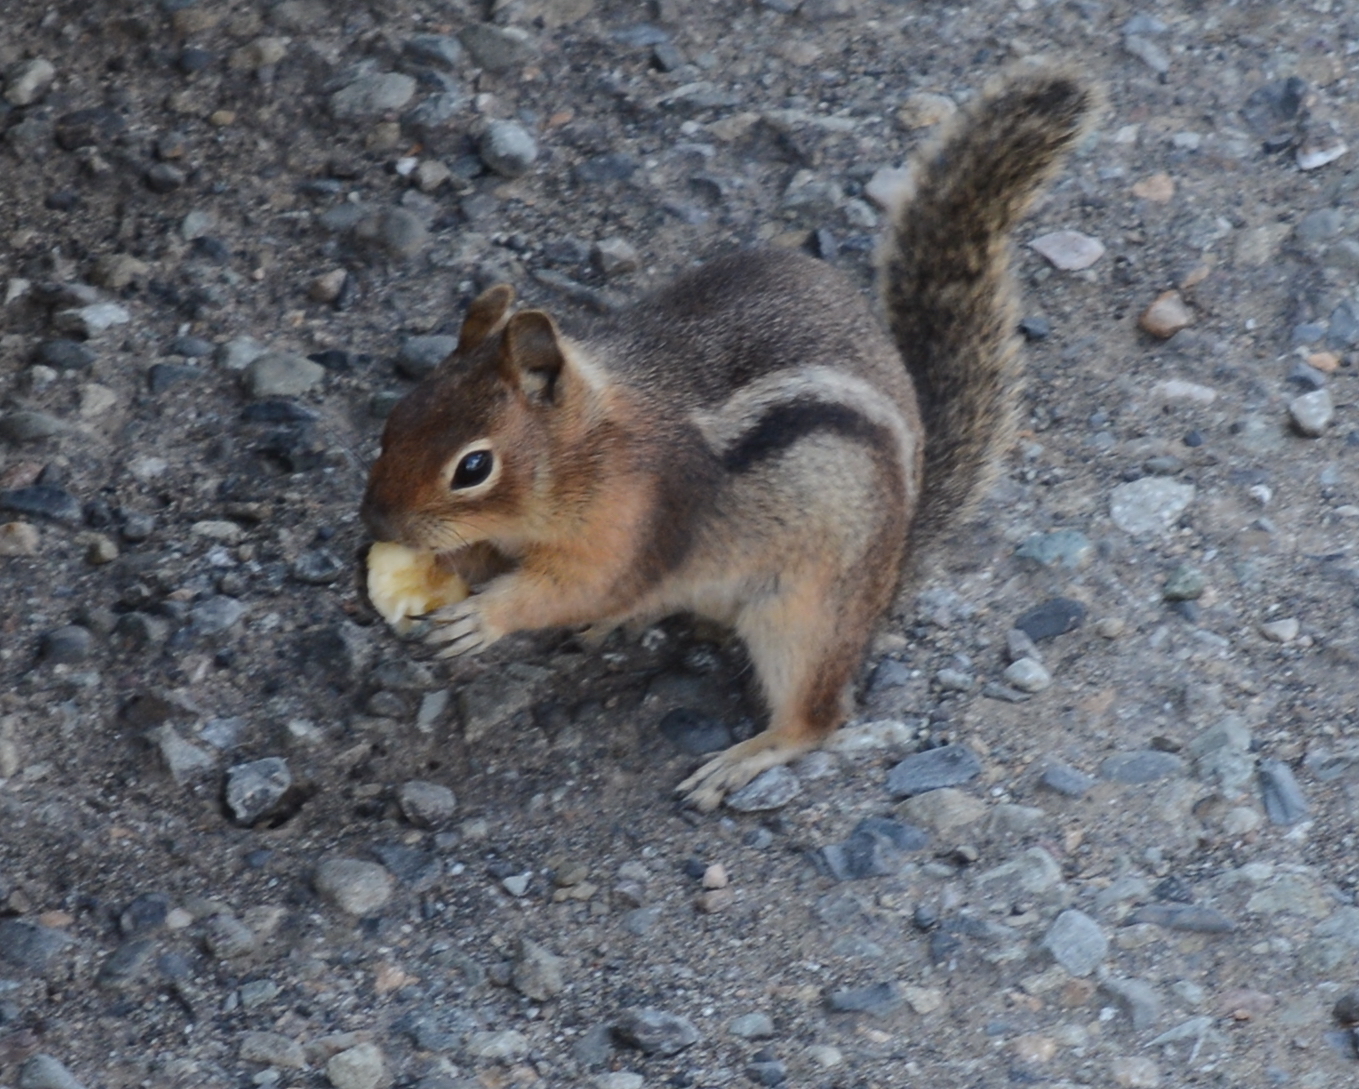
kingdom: Animalia
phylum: Chordata
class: Mammalia
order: Rodentia
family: Sciuridae
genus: Callospermophilus
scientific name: Callospermophilus saturatus
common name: Cascade golden-mantled ground squirrel
